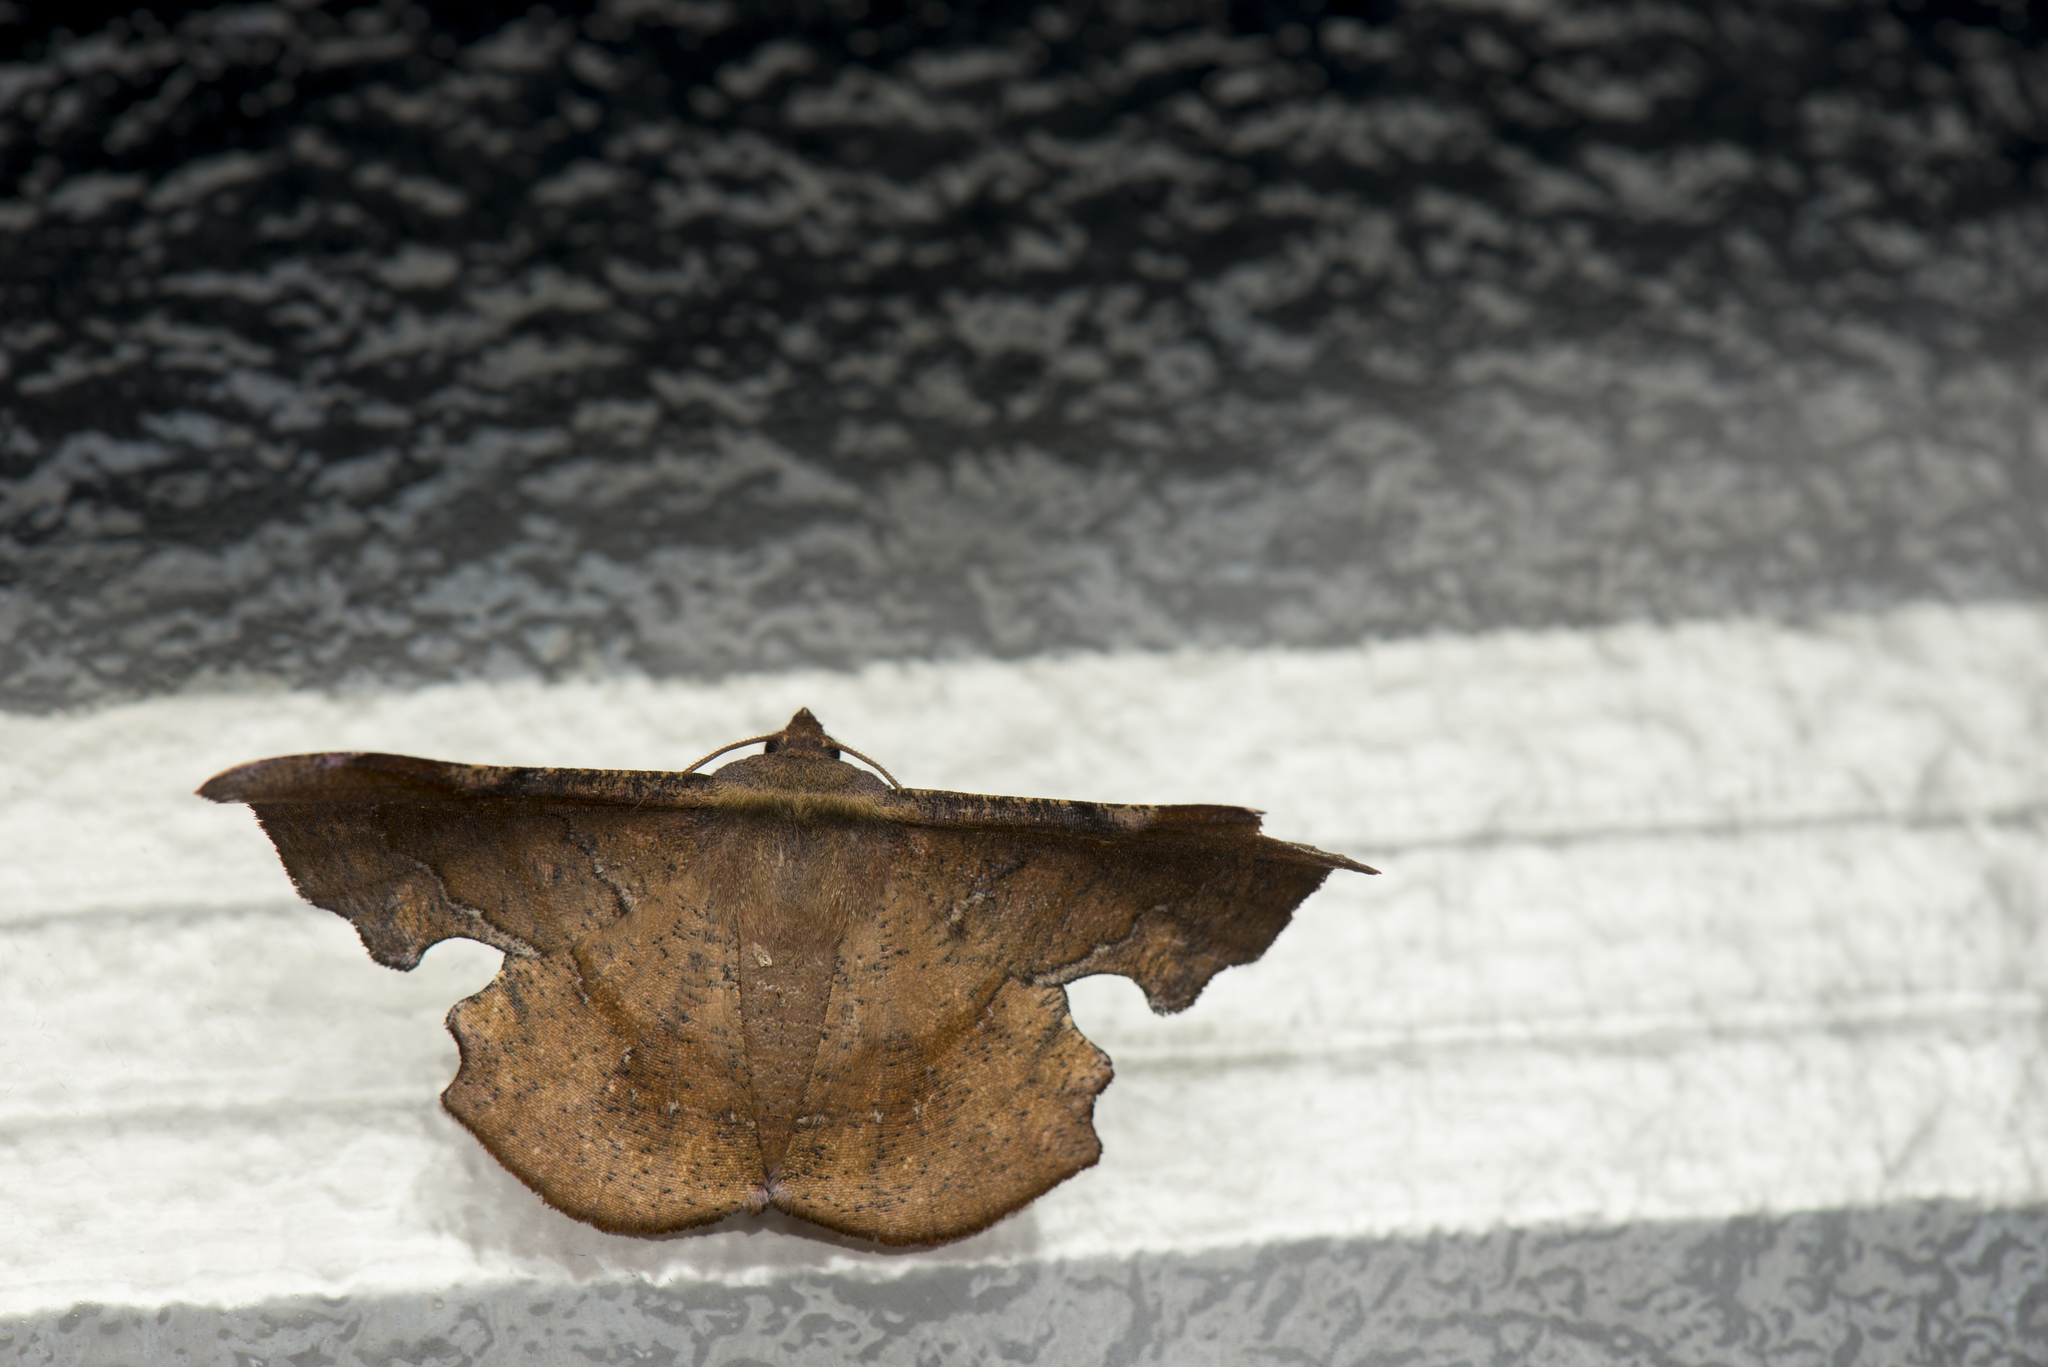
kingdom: Animalia
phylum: Arthropoda
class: Insecta
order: Lepidoptera
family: Geometridae
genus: Fascellina
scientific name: Fascellina chromataria
